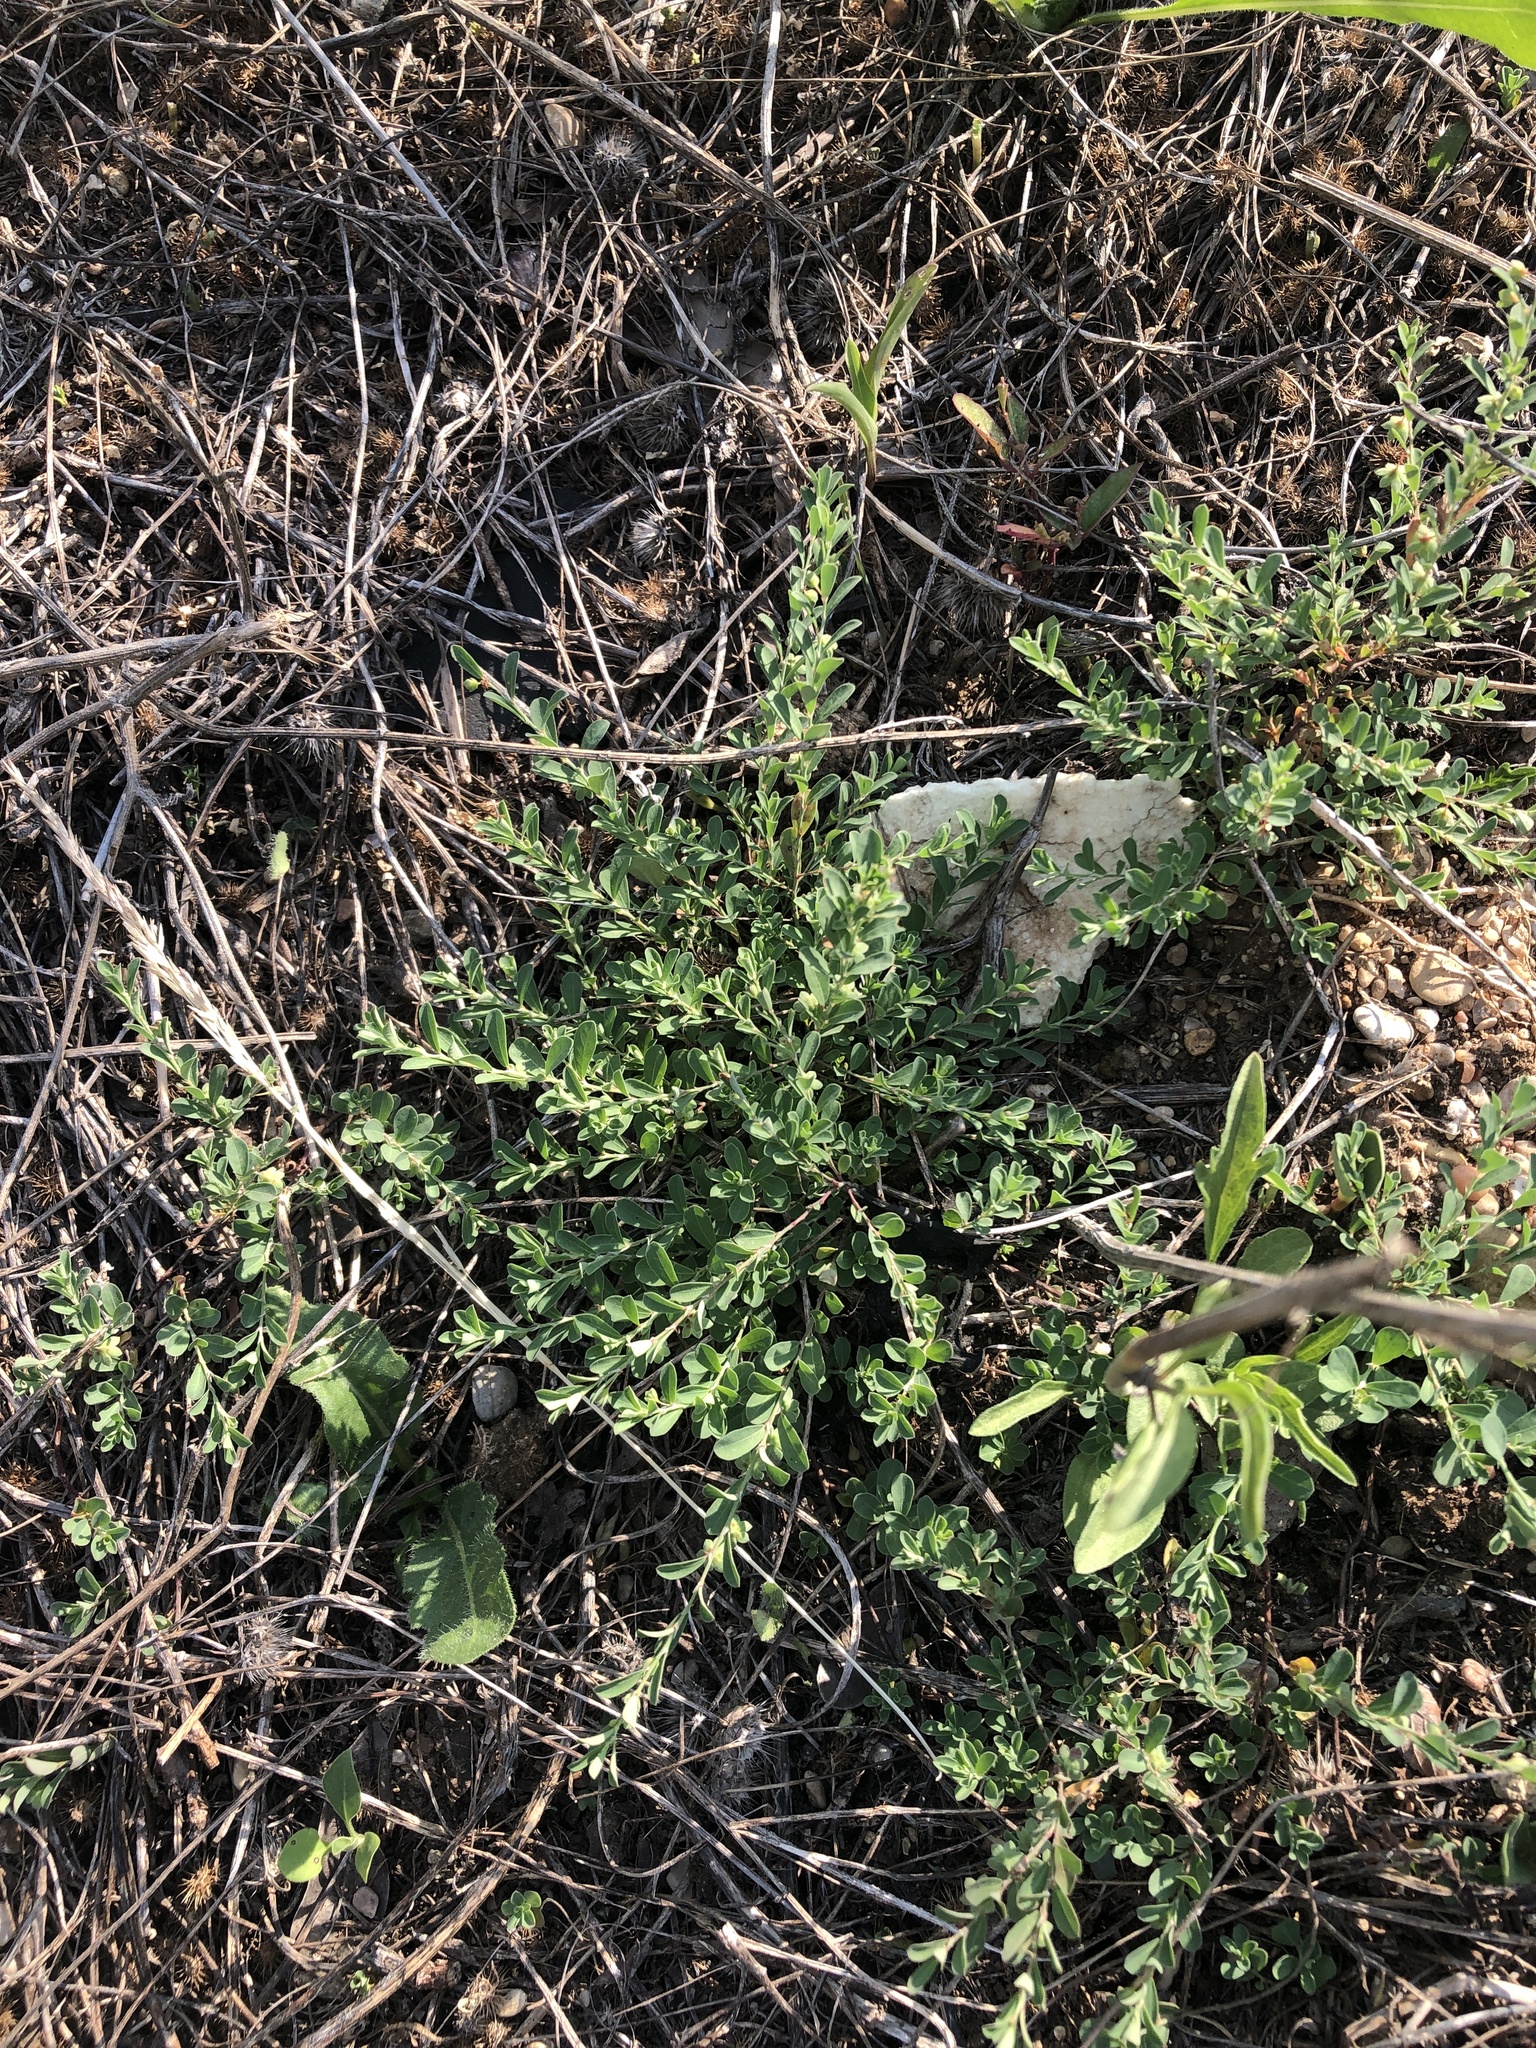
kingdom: Plantae
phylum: Tracheophyta
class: Magnoliopsida
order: Malpighiales
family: Phyllanthaceae
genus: Phyllanthus
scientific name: Phyllanthus polygonoides
